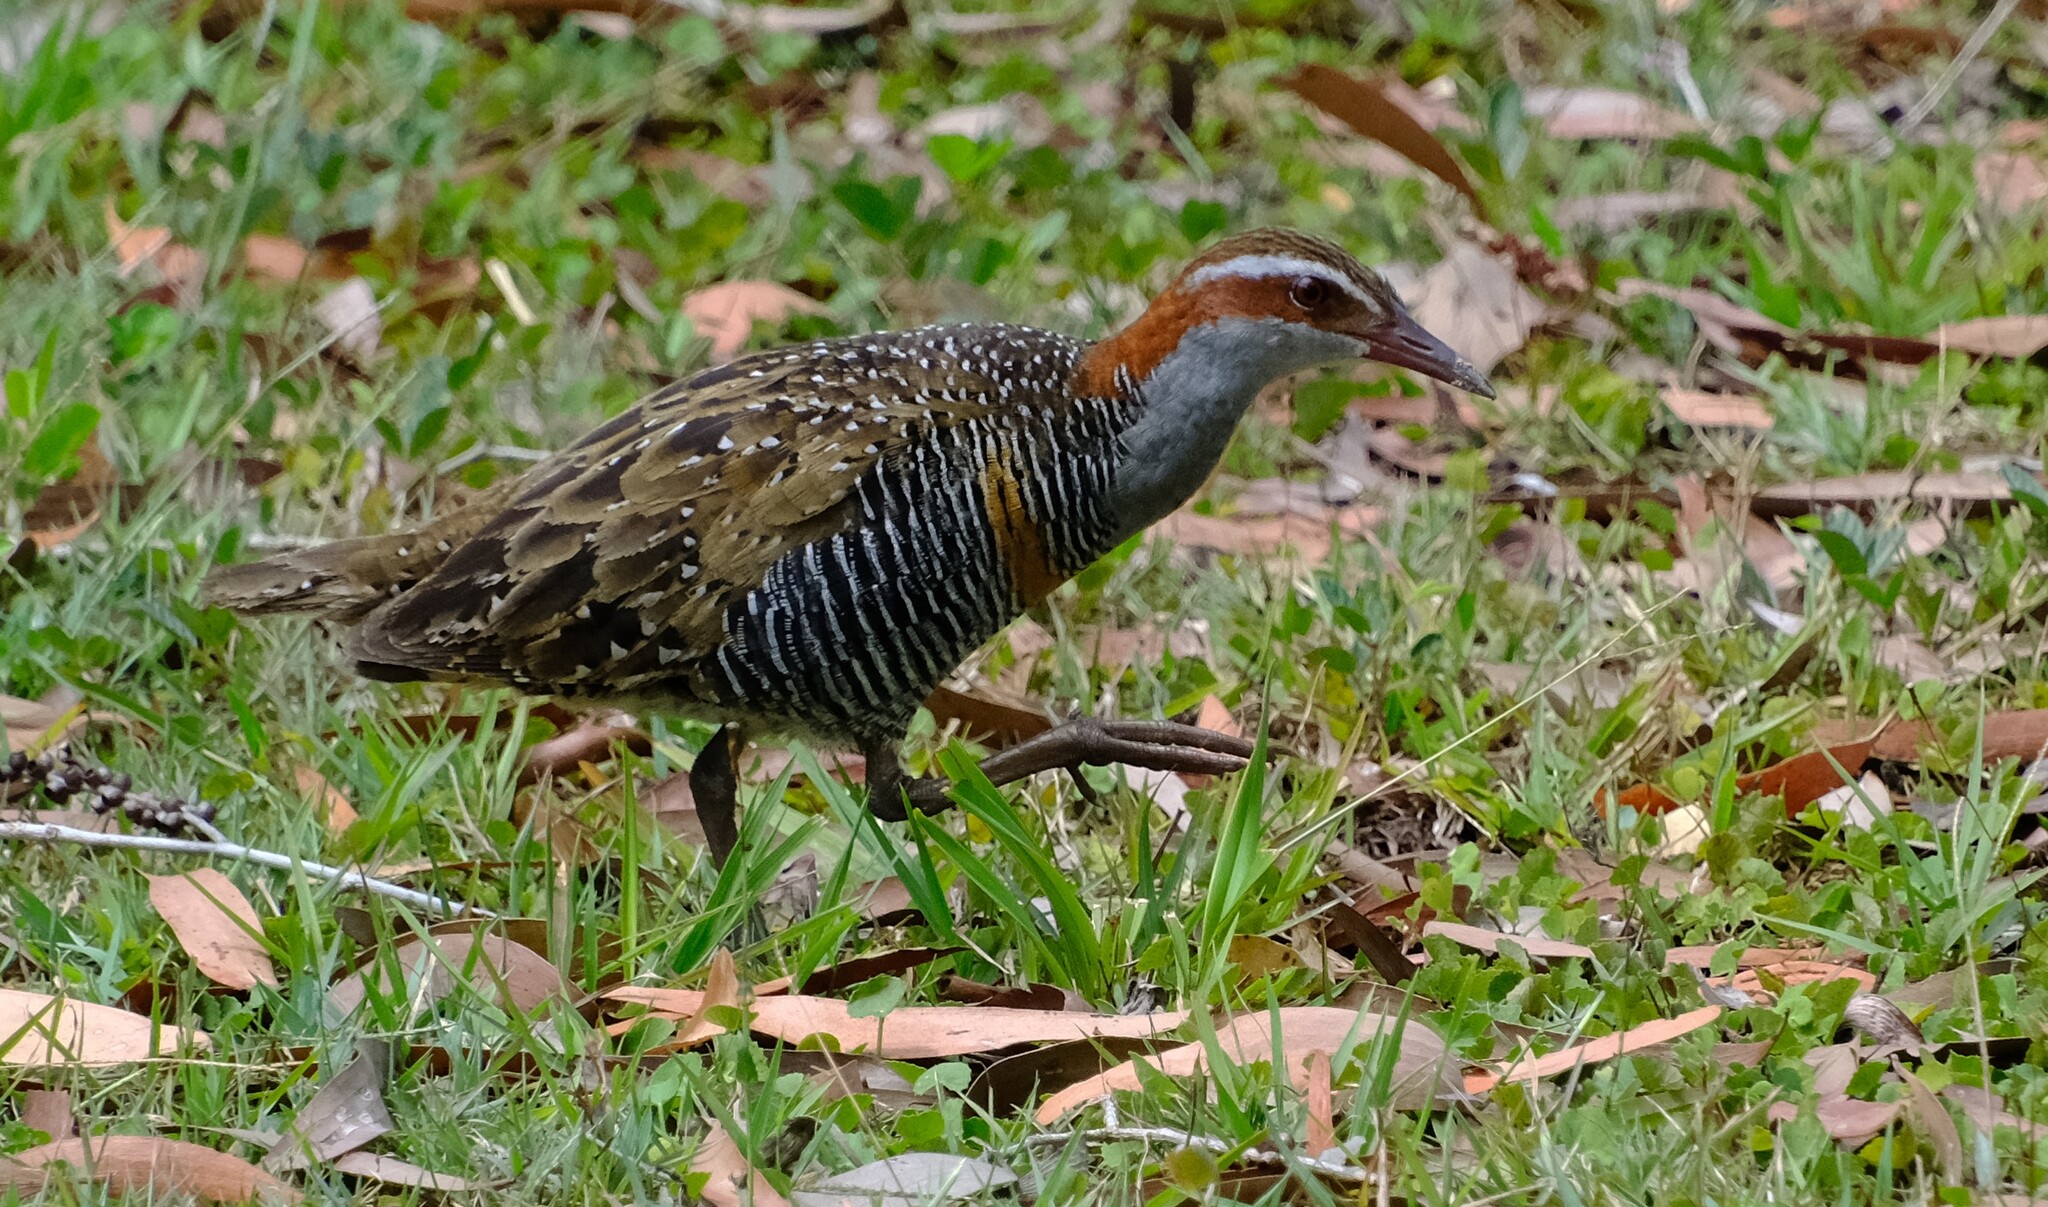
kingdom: Animalia
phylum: Chordata
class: Aves
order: Gruiformes
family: Rallidae
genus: Gallirallus
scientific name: Gallirallus philippensis
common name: Buff-banded rail
